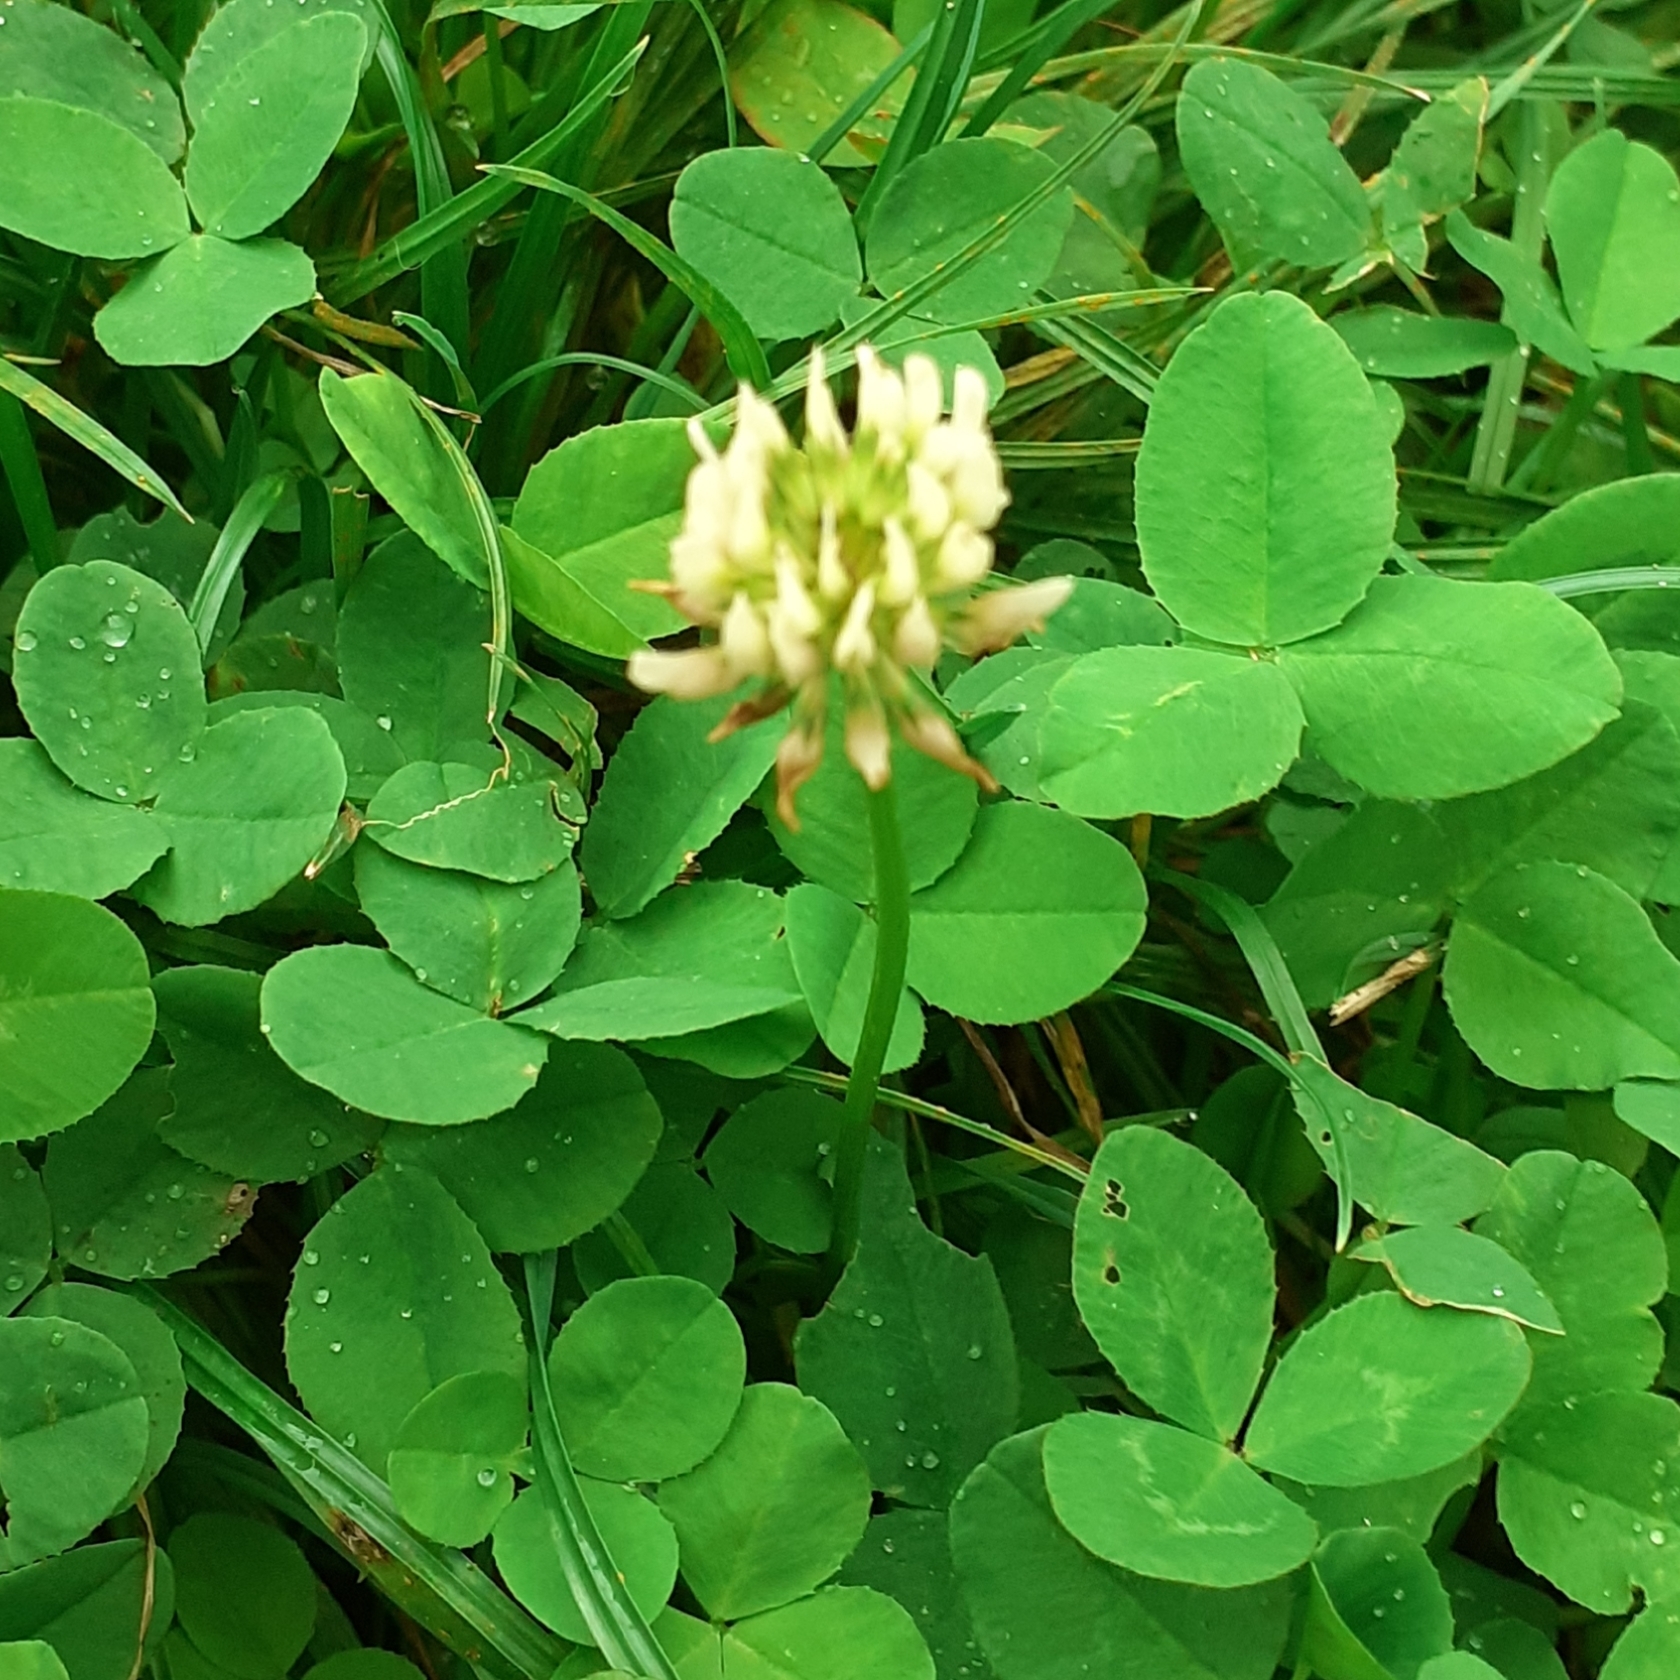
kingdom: Plantae
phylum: Tracheophyta
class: Magnoliopsida
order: Fabales
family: Fabaceae
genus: Trifolium
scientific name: Trifolium repens
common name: White clover
